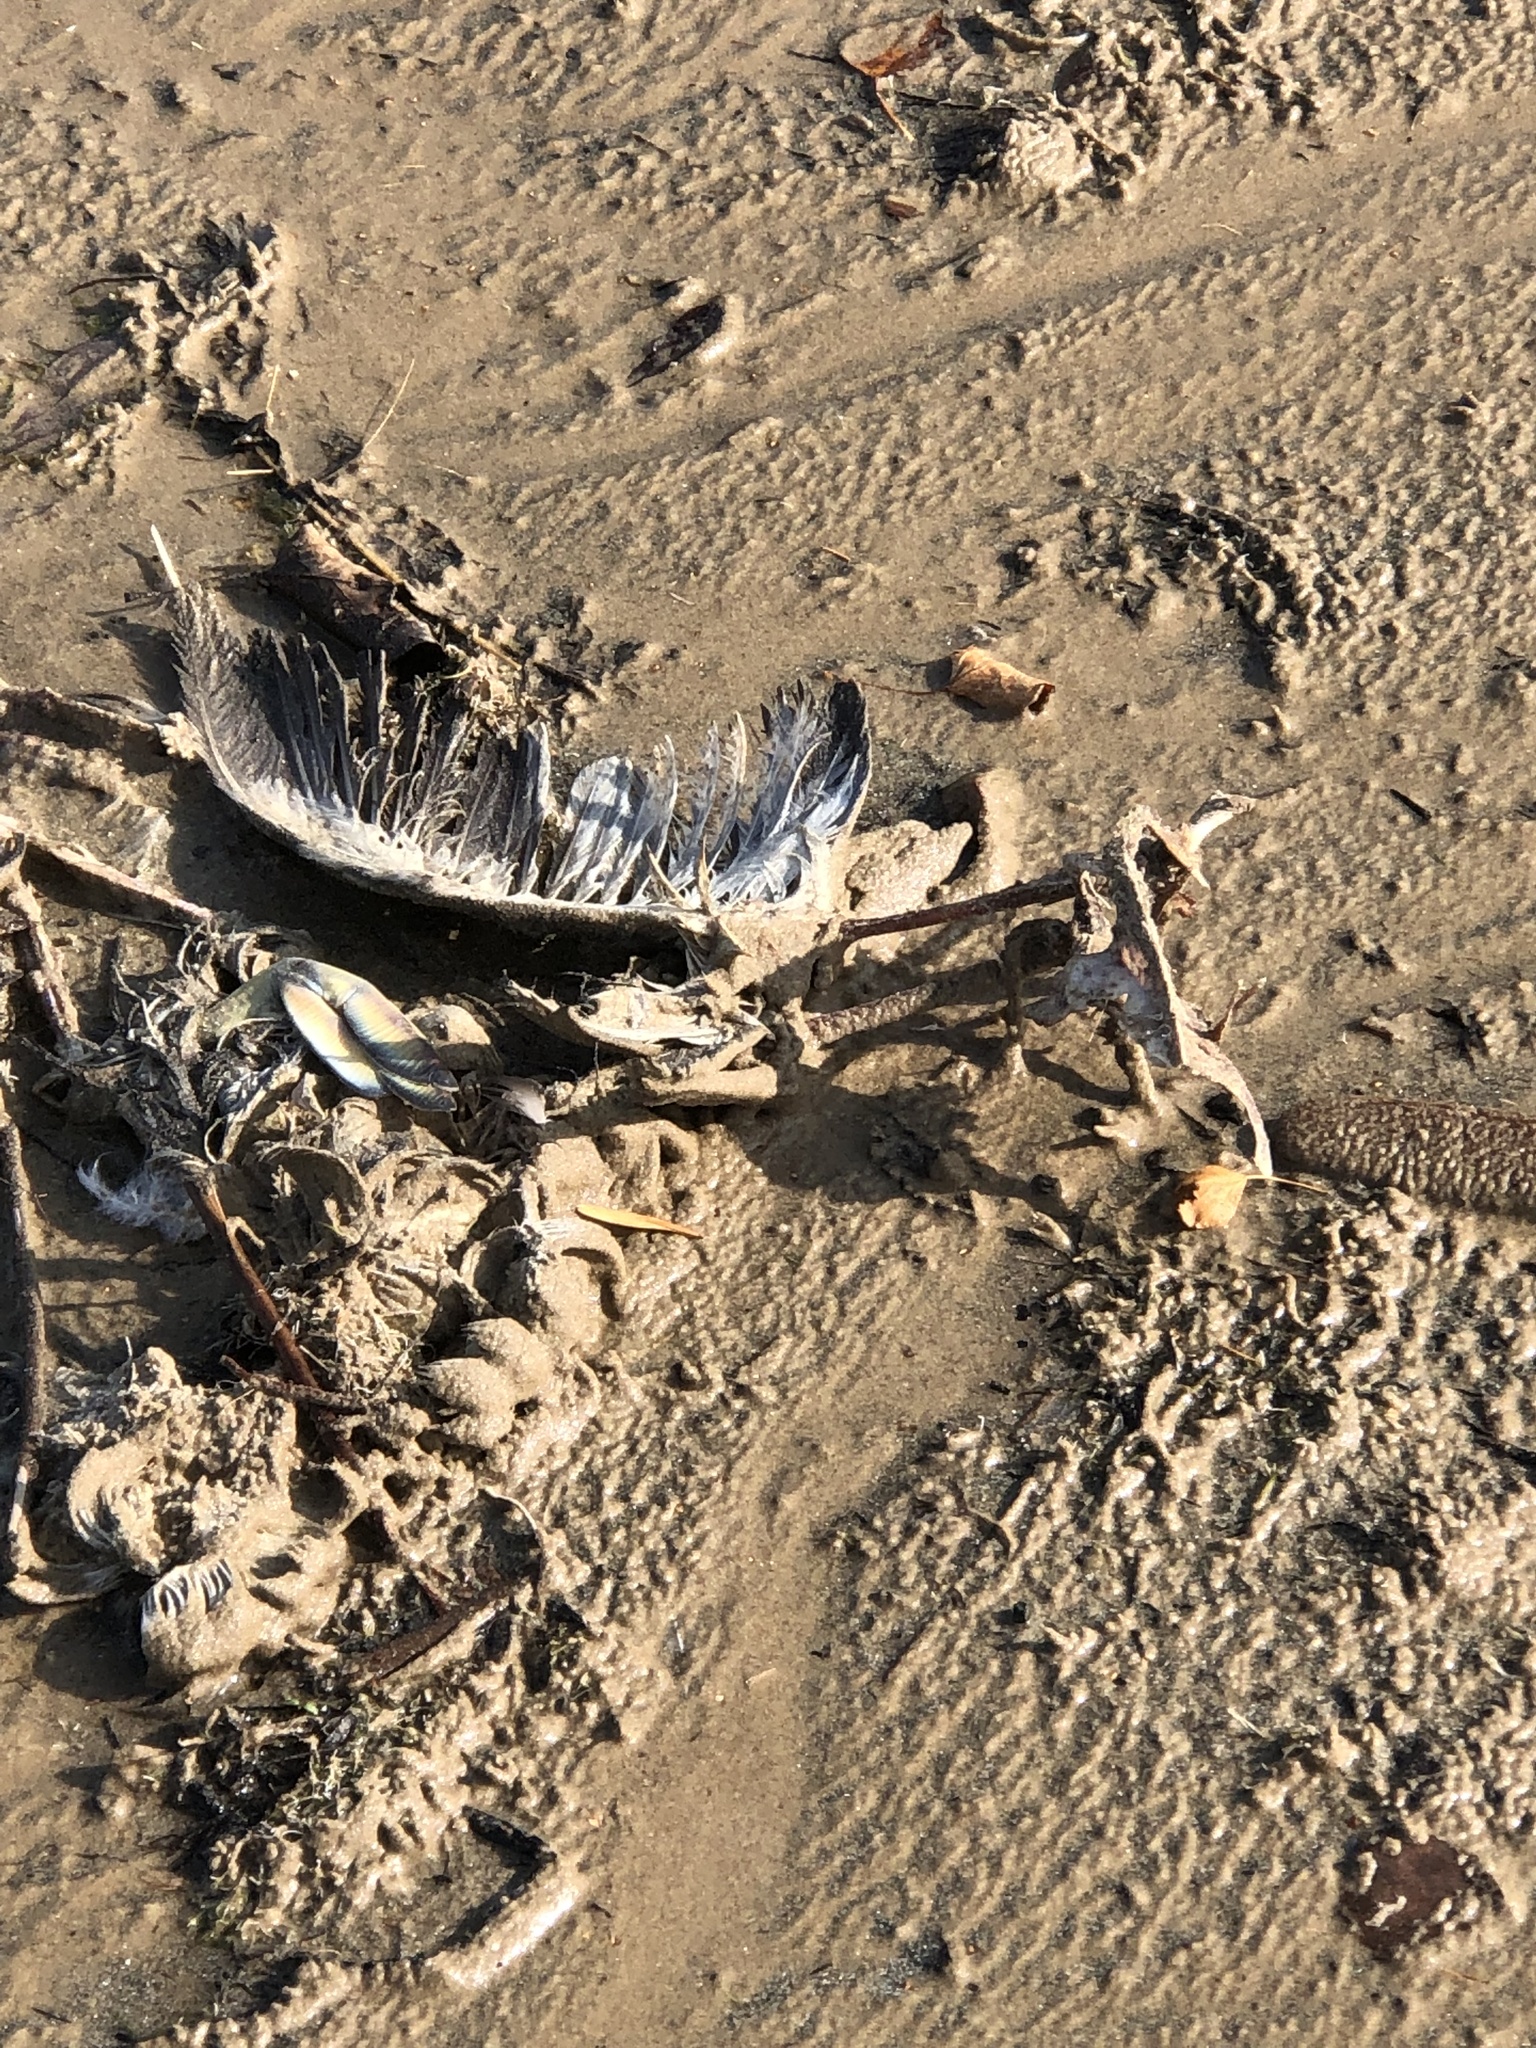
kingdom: Animalia
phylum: Chordata
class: Aves
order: Podicipediformes
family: Podicipedidae
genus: Podiceps
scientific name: Podiceps grisegena
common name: Red-necked grebe
